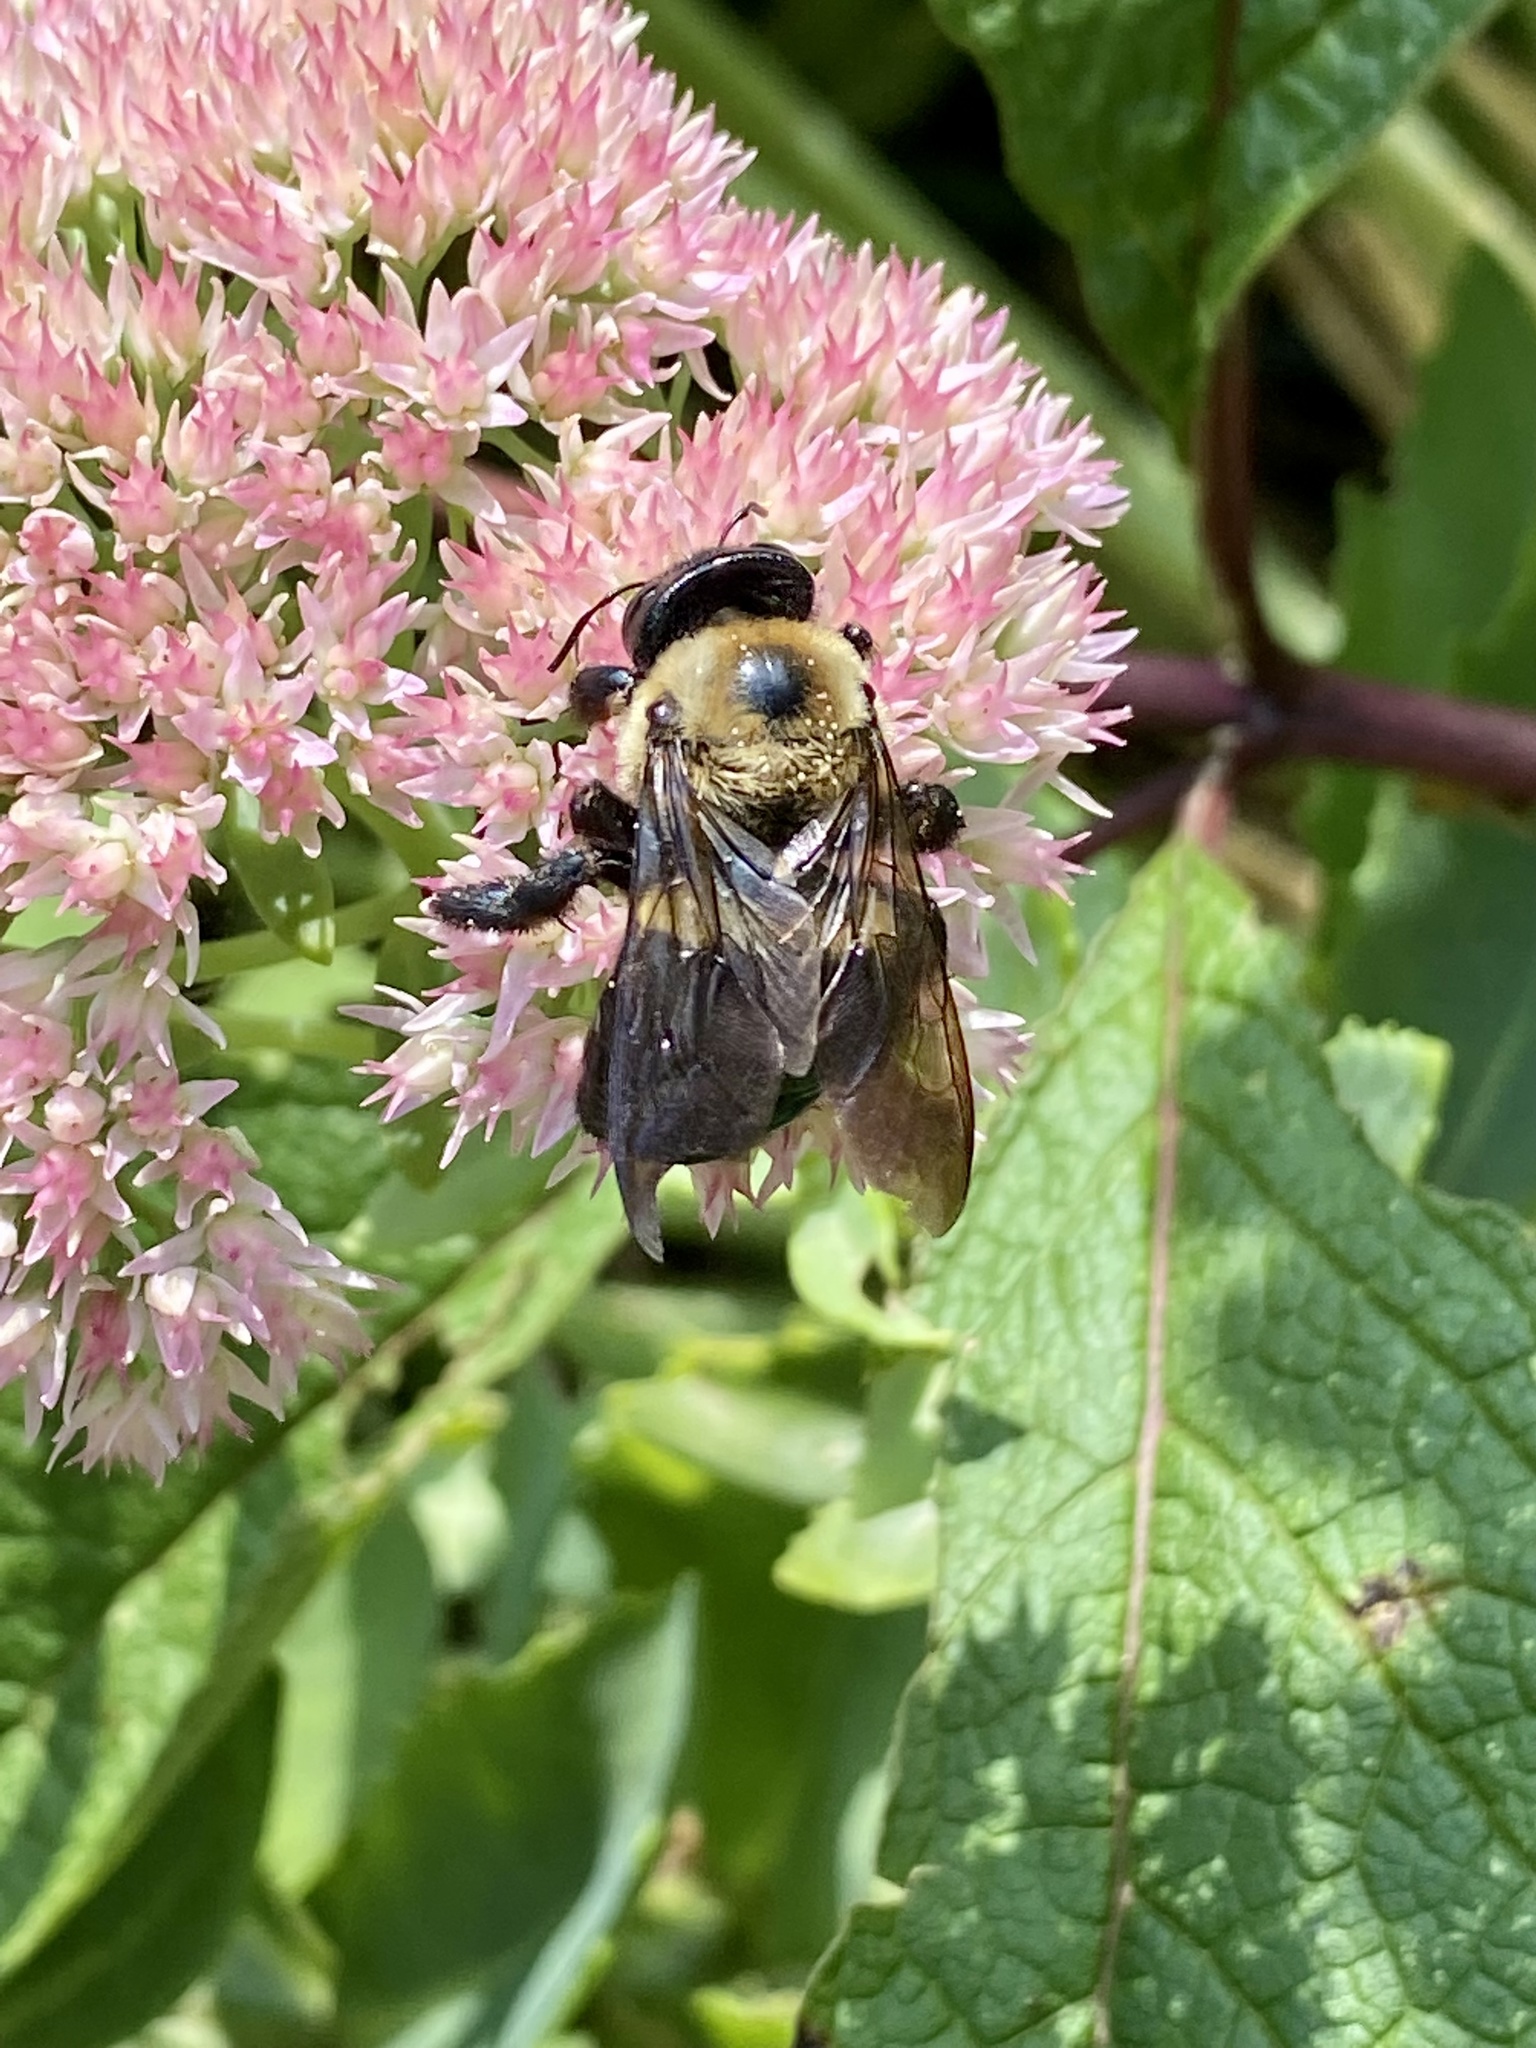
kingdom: Animalia
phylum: Arthropoda
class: Insecta
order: Hymenoptera
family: Apidae
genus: Xylocopa
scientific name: Xylocopa virginica
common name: Carpenter bee
